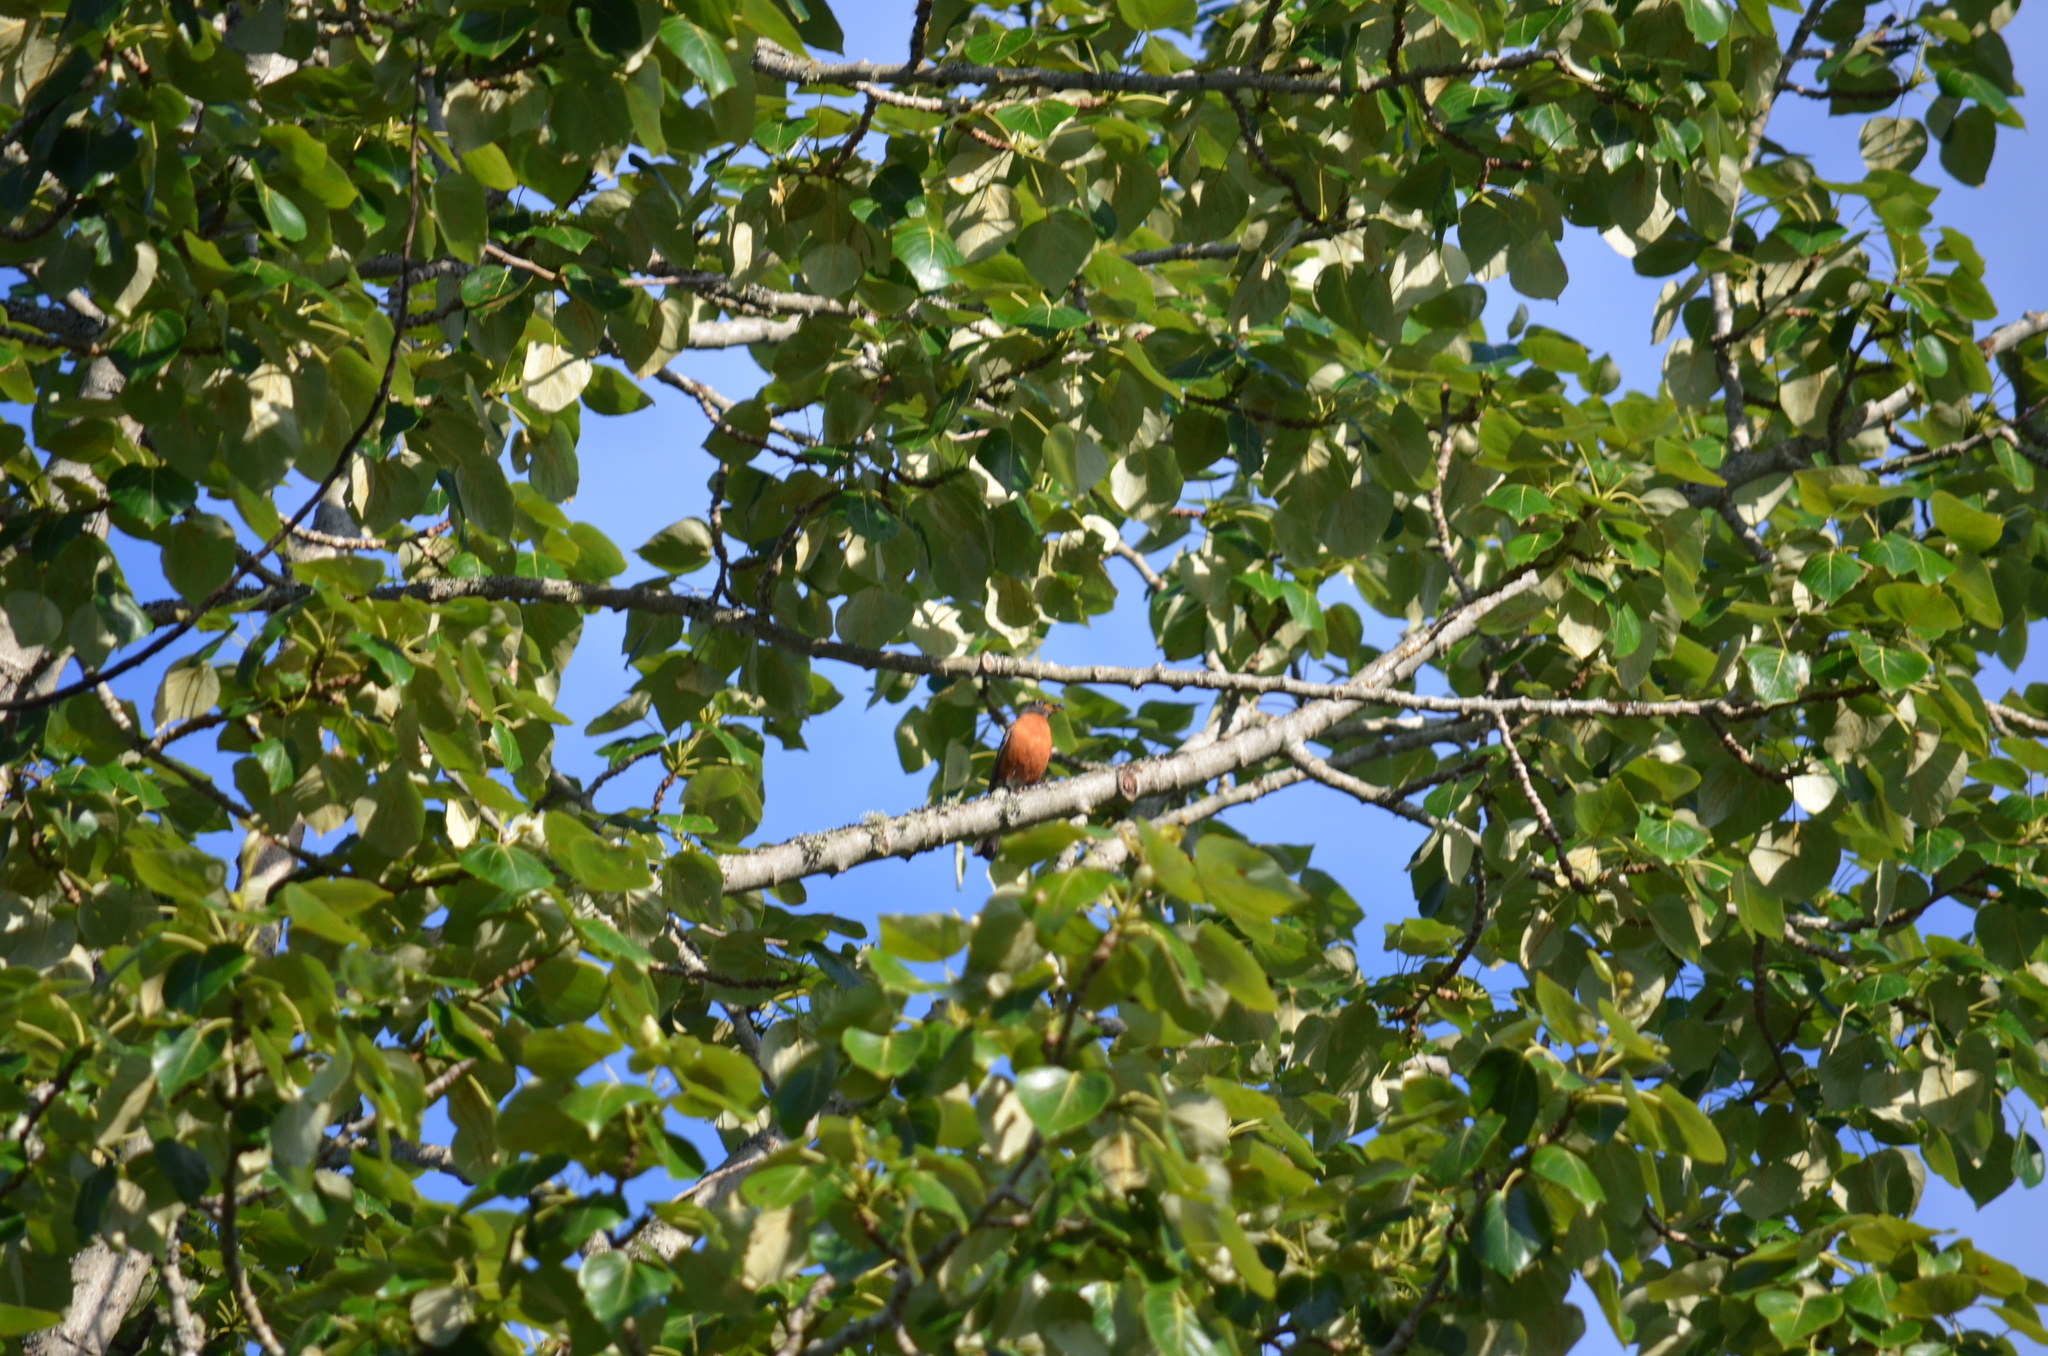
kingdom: Animalia
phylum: Chordata
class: Aves
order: Passeriformes
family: Turdidae
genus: Turdus
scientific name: Turdus migratorius
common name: American robin
